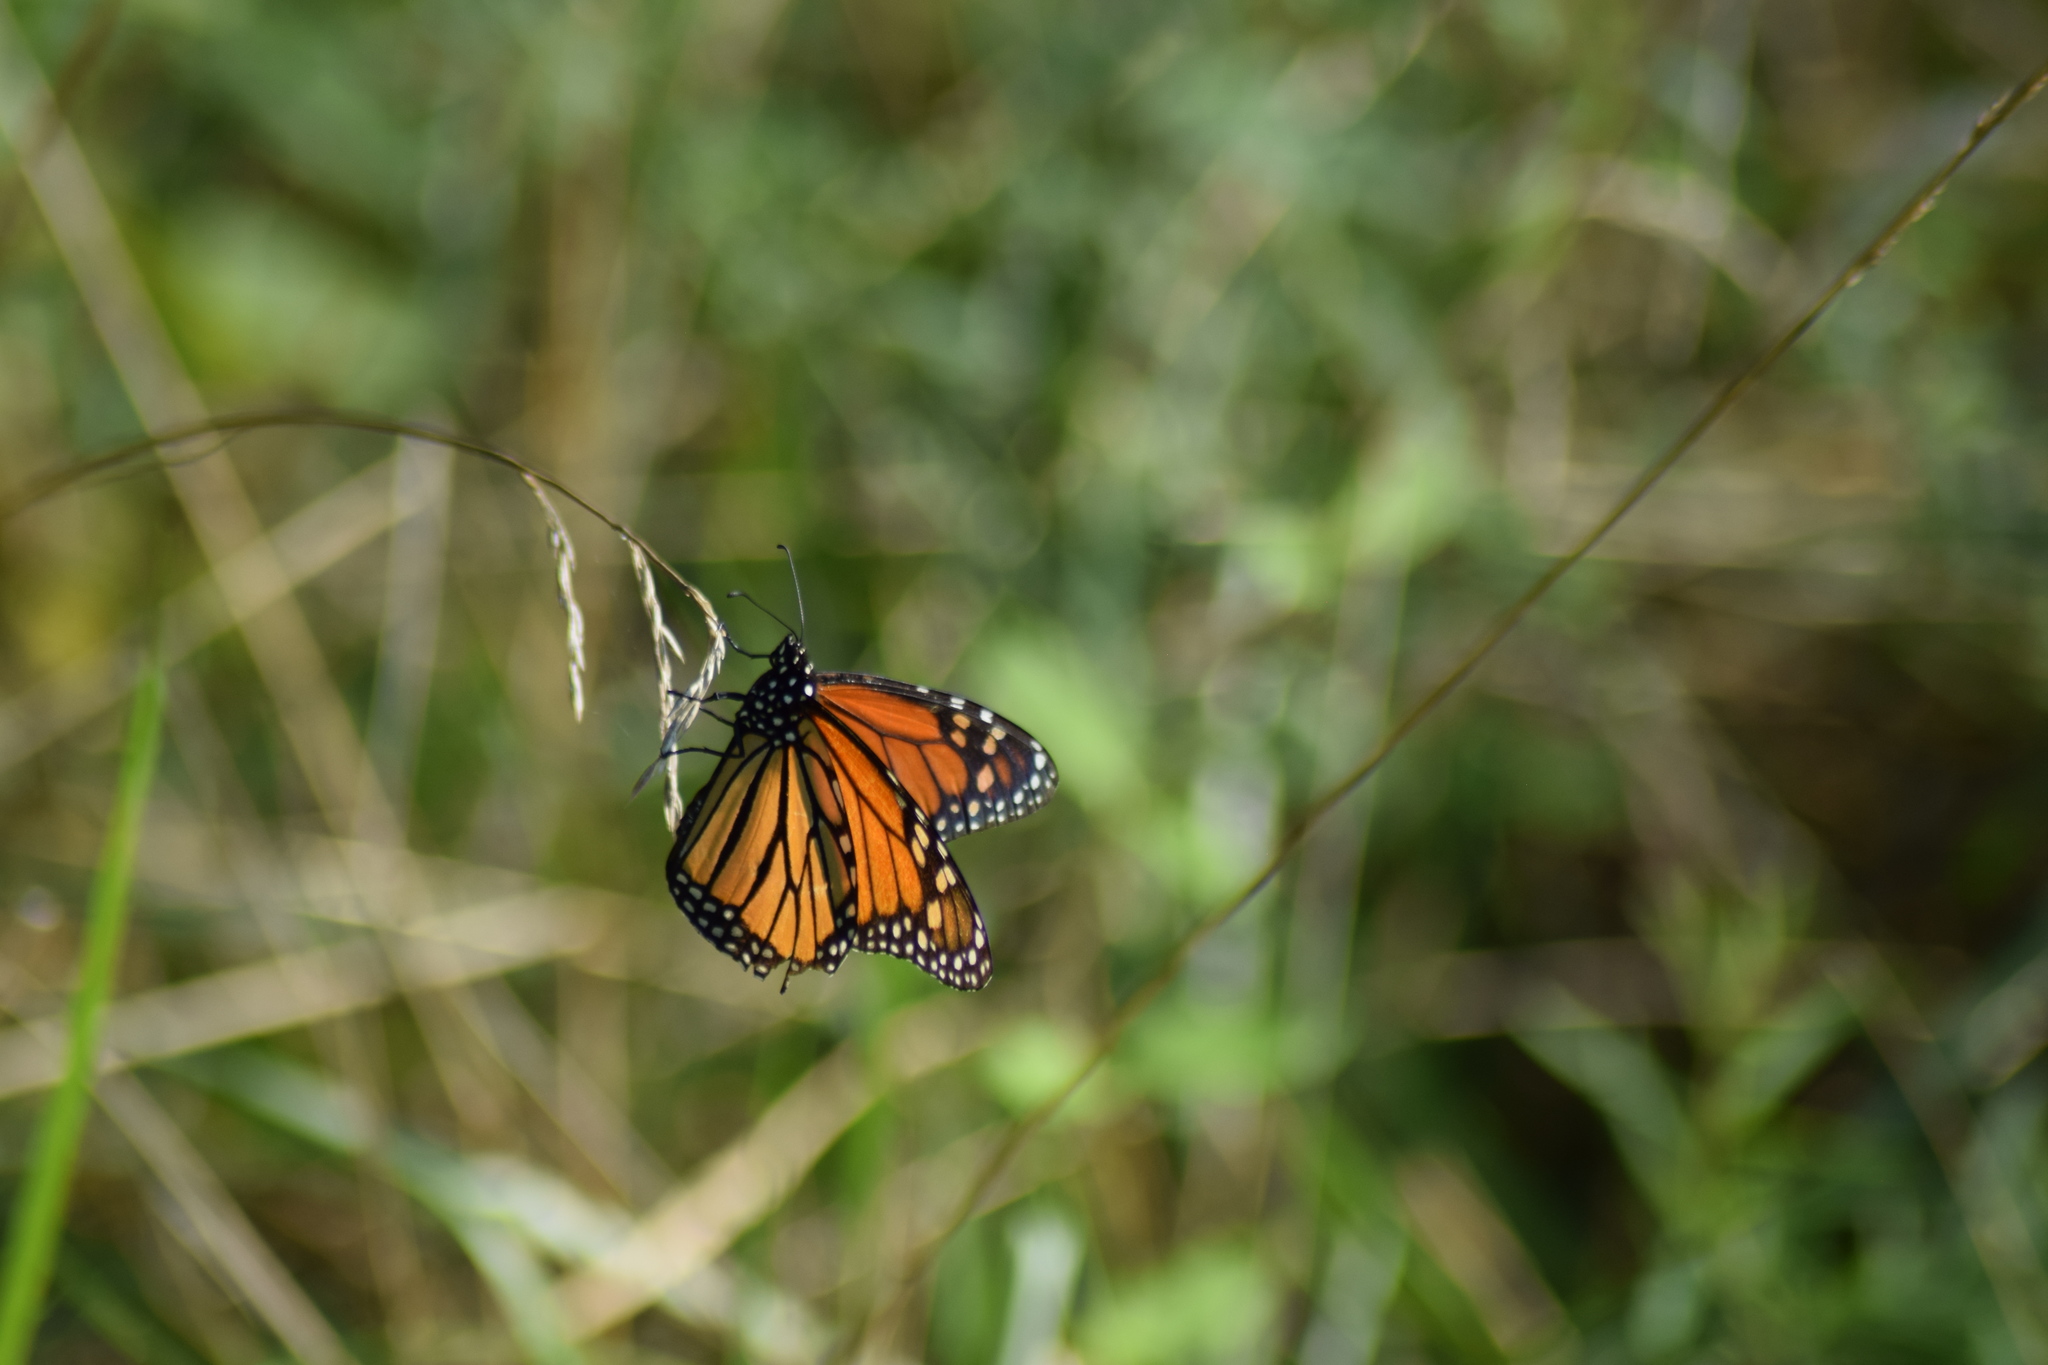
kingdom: Animalia
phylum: Arthropoda
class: Insecta
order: Lepidoptera
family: Nymphalidae
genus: Danaus
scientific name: Danaus plexippus
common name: Monarch
